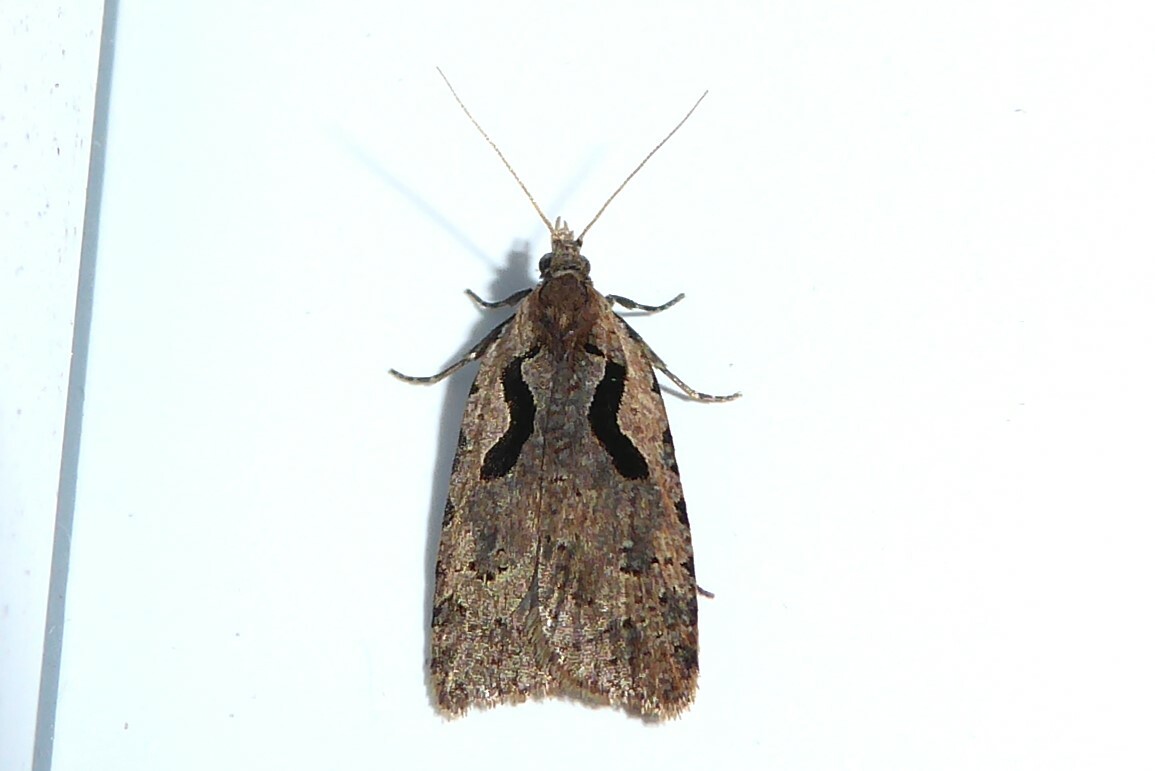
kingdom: Animalia
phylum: Arthropoda
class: Insecta
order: Lepidoptera
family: Tortricidae
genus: Cnephasia
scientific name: Cnephasia jactatana
